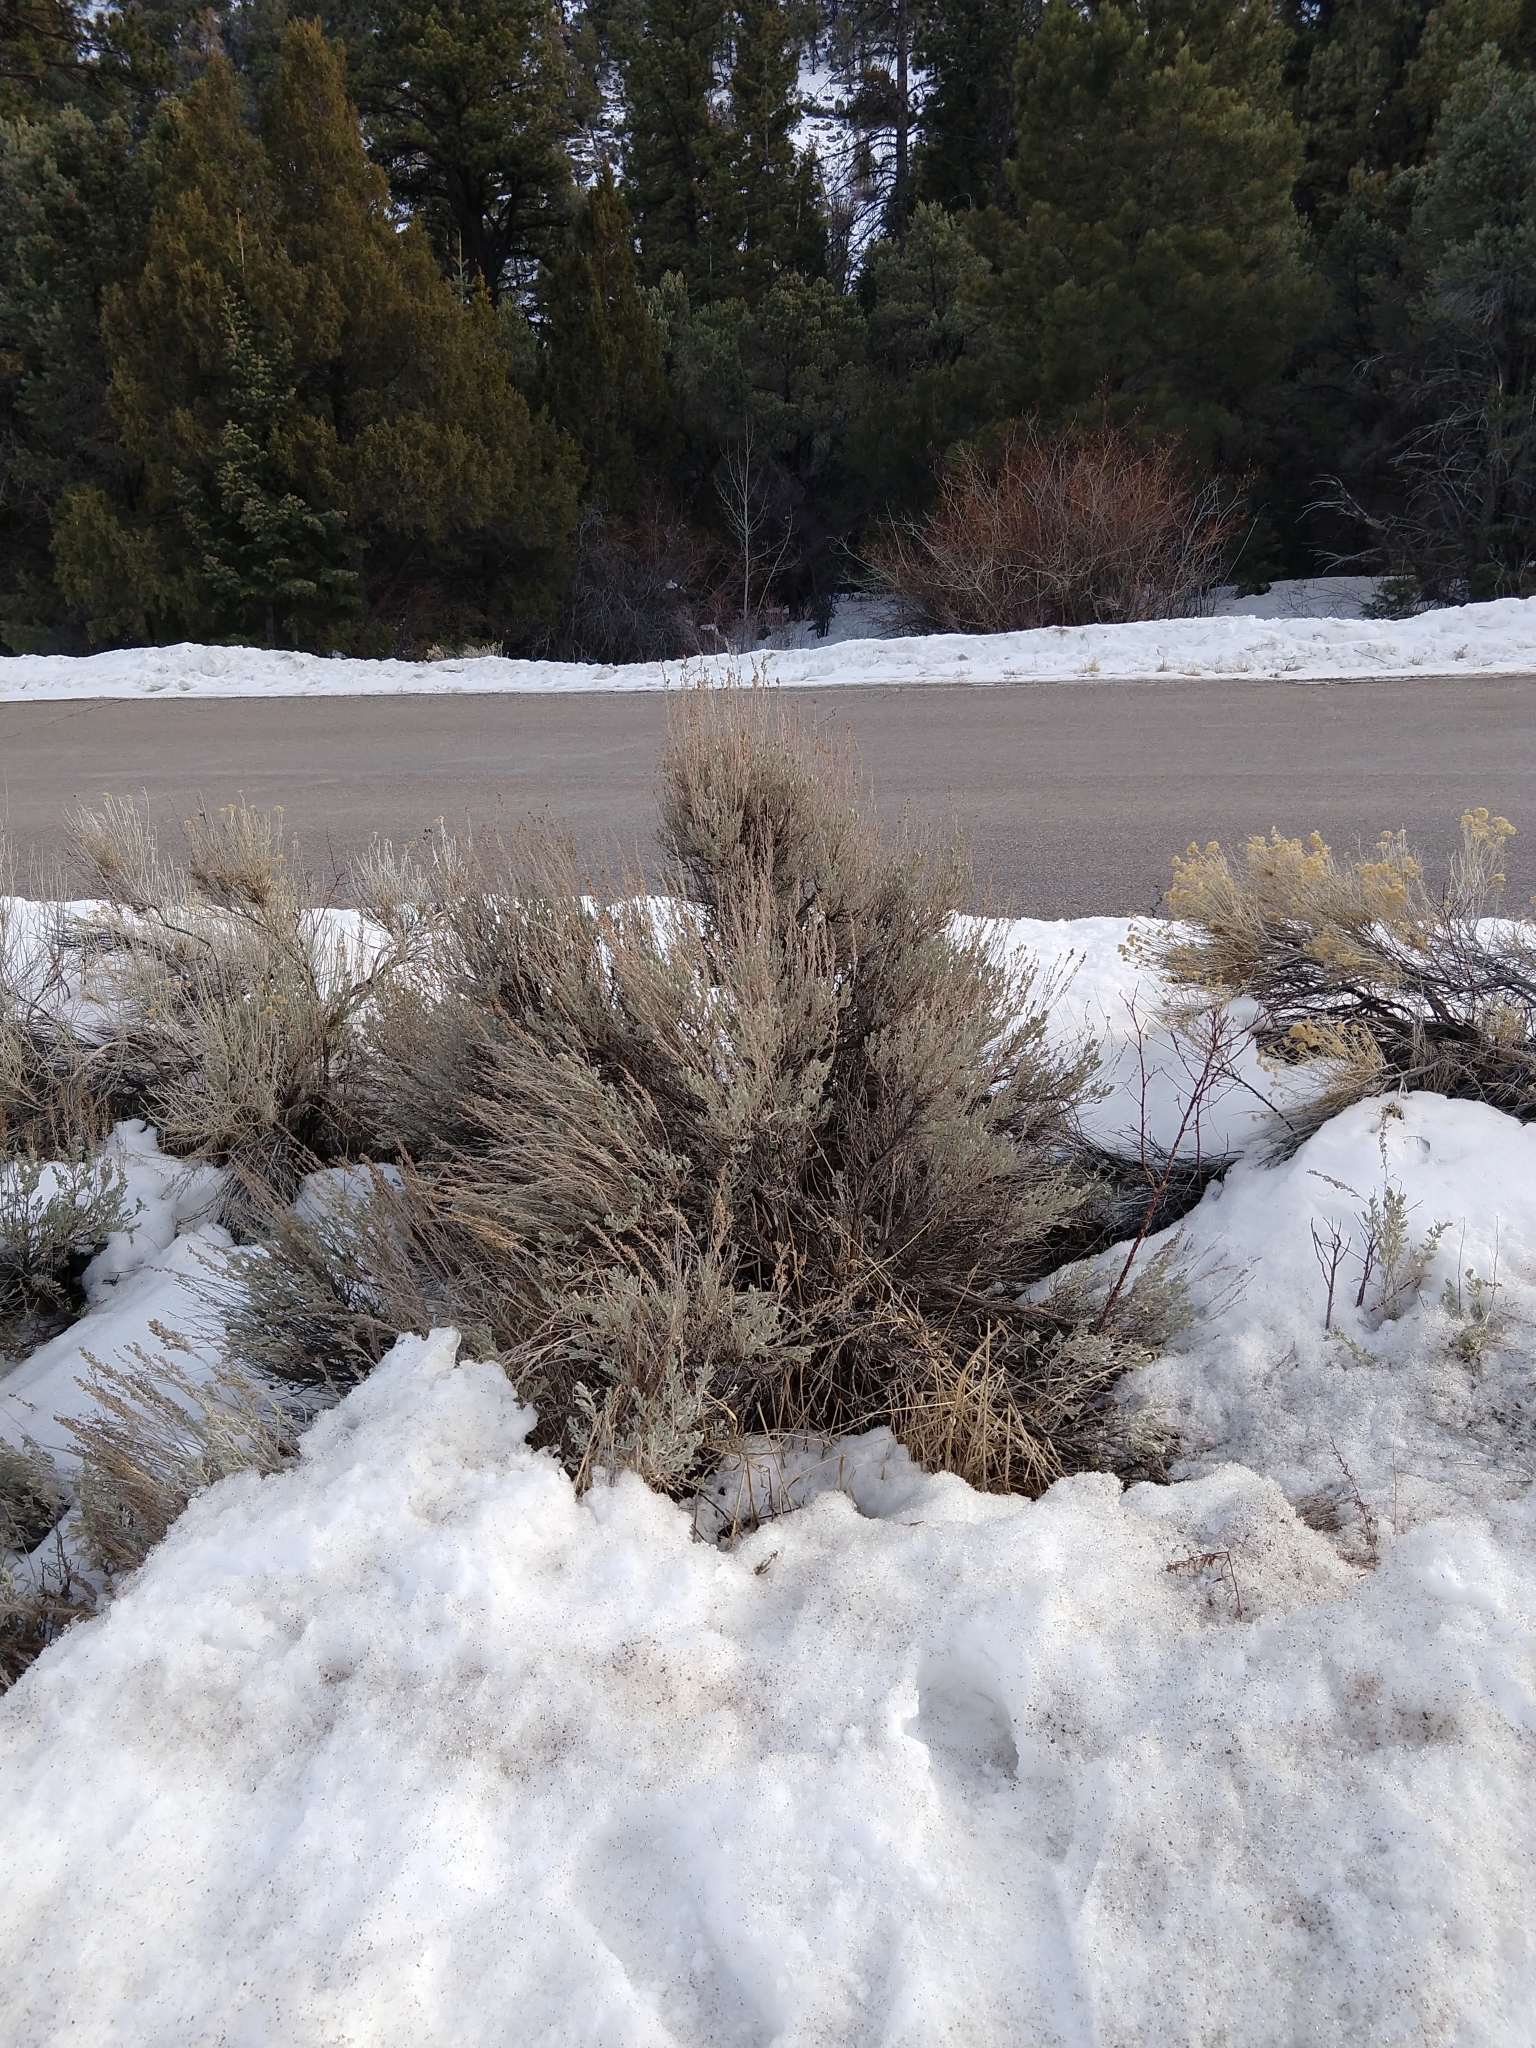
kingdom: Plantae
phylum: Tracheophyta
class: Magnoliopsida
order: Asterales
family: Asteraceae
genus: Artemisia
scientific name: Artemisia tridentata
